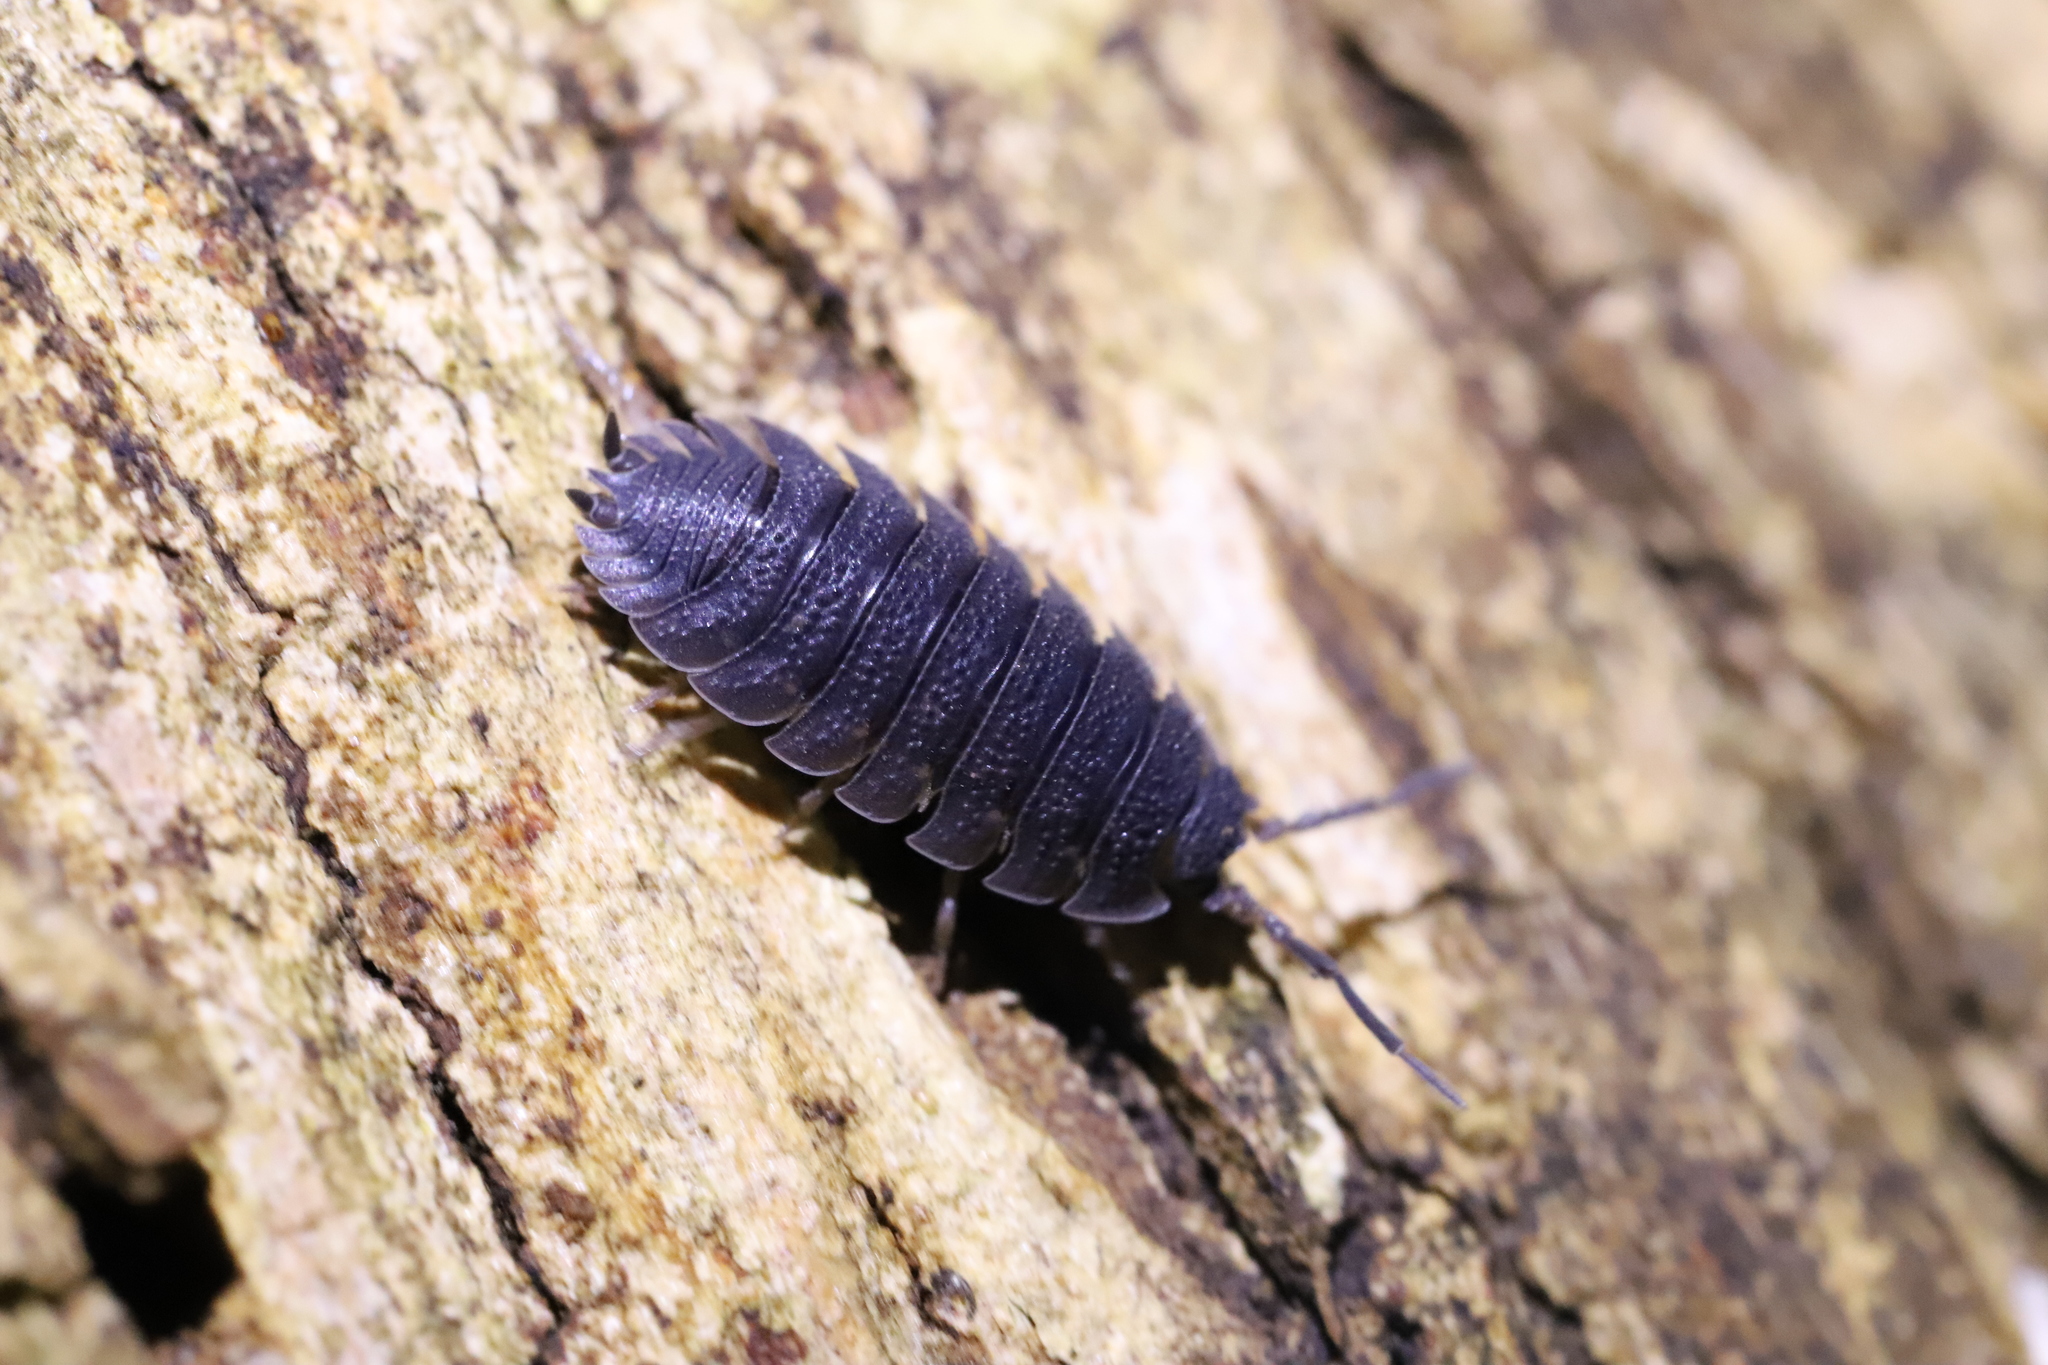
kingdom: Animalia
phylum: Arthropoda
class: Malacostraca
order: Isopoda
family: Porcellionidae
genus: Porcellio
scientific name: Porcellio scaber
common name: Common rough woodlouse
